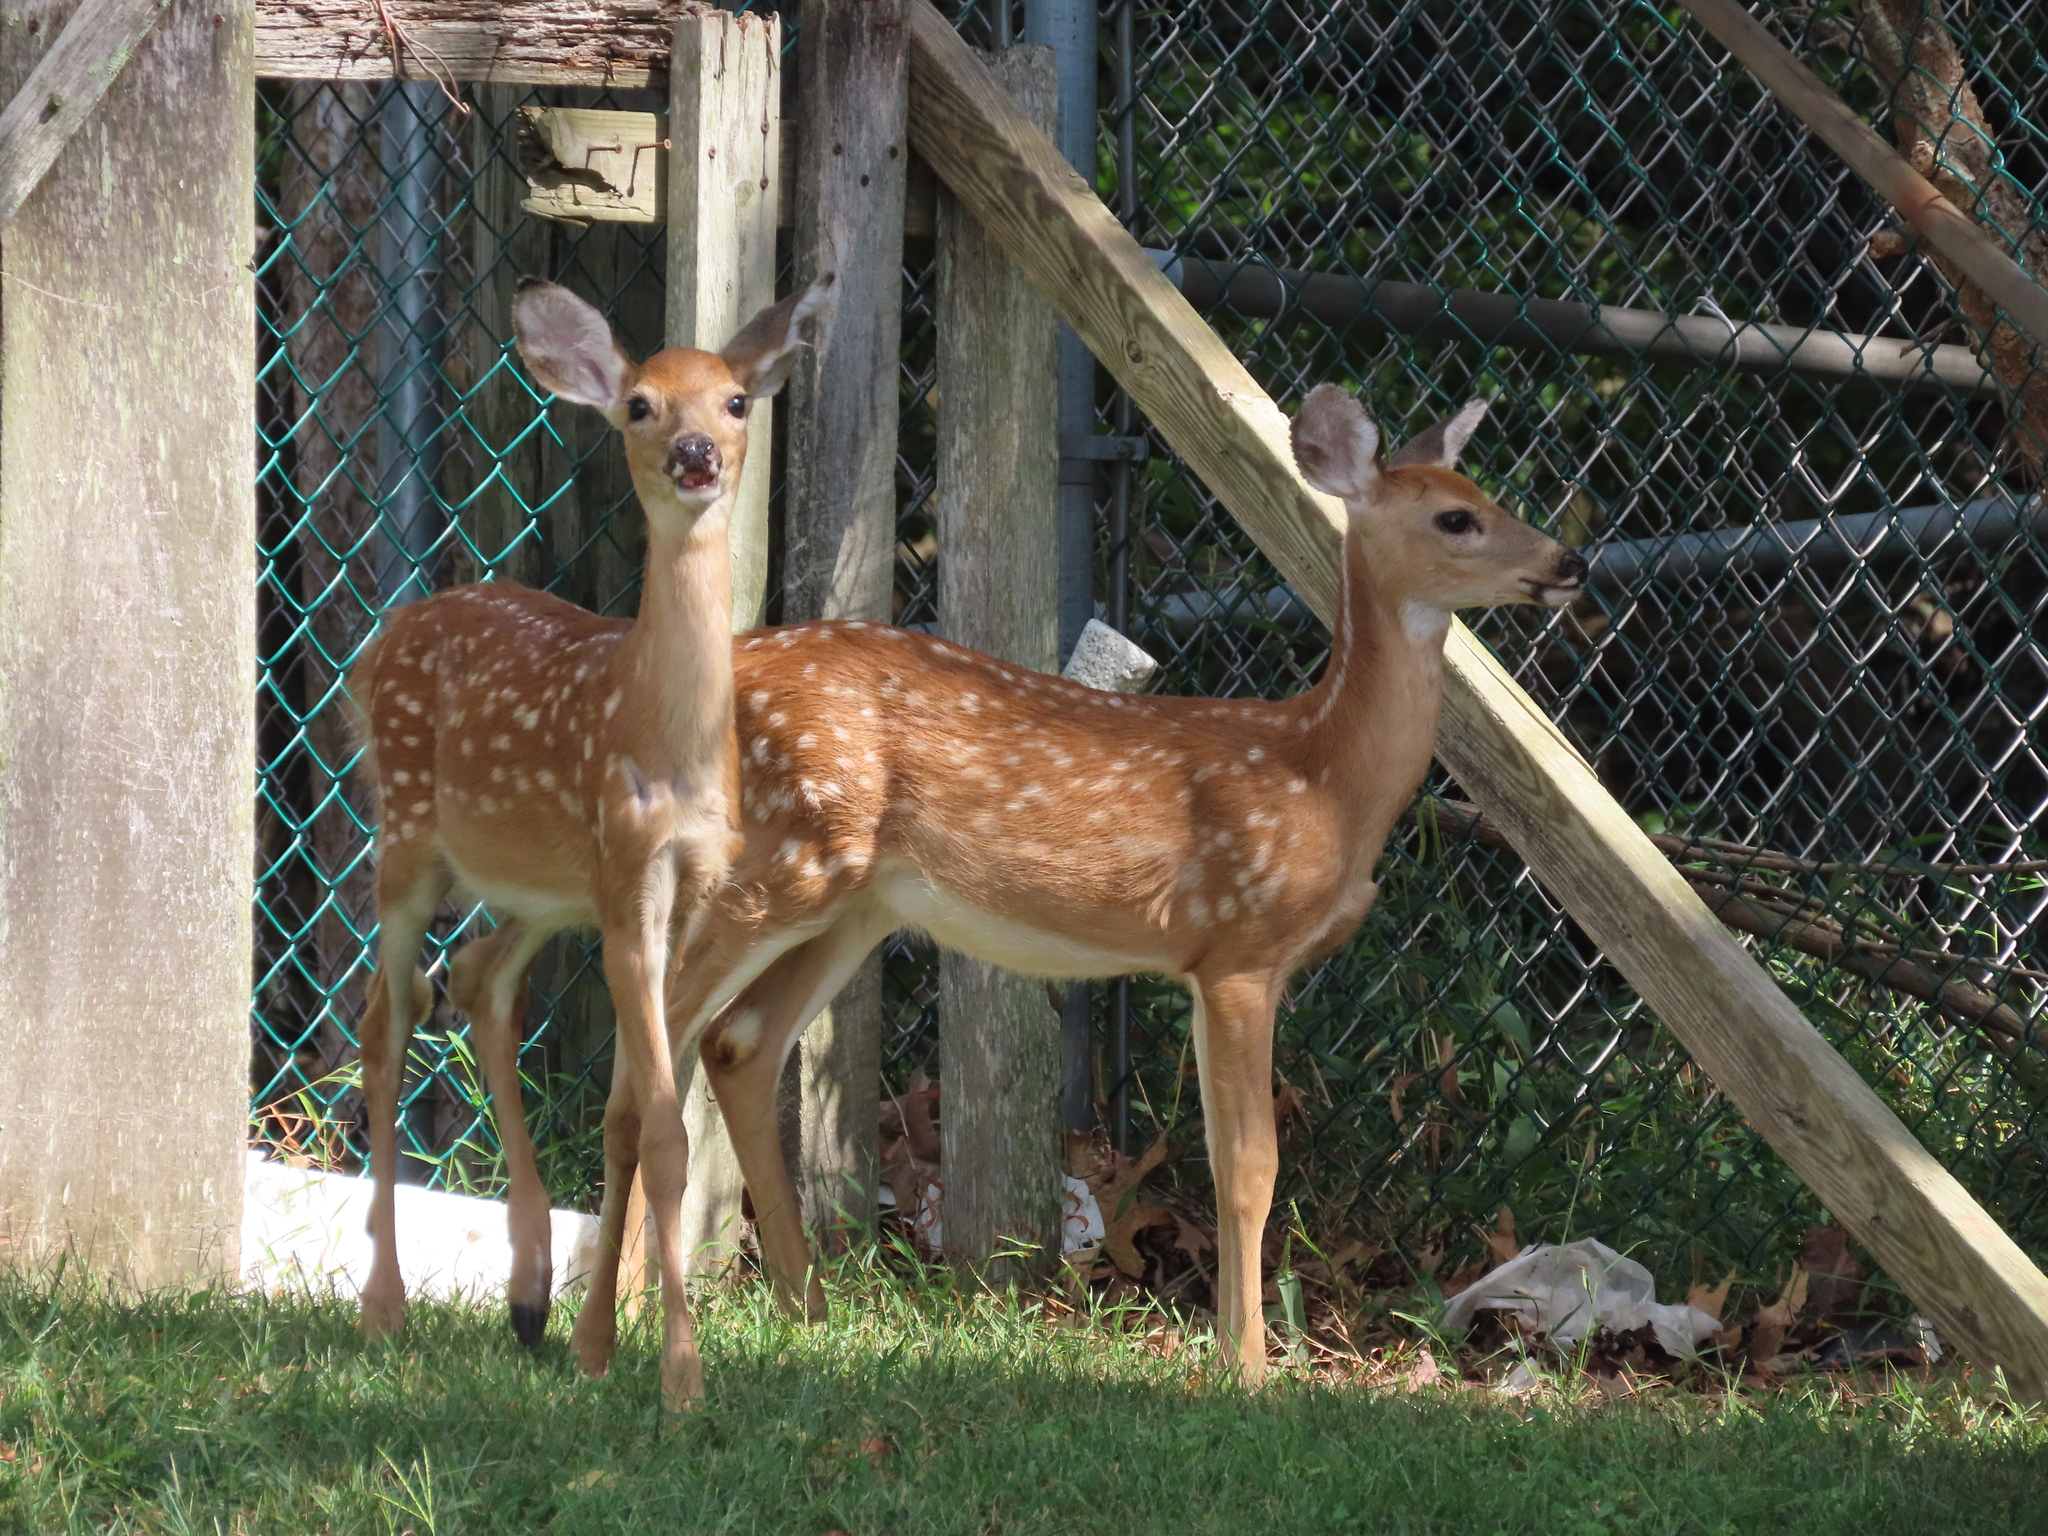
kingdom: Animalia
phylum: Chordata
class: Mammalia
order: Artiodactyla
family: Cervidae
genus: Odocoileus
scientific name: Odocoileus virginianus
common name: White-tailed deer
